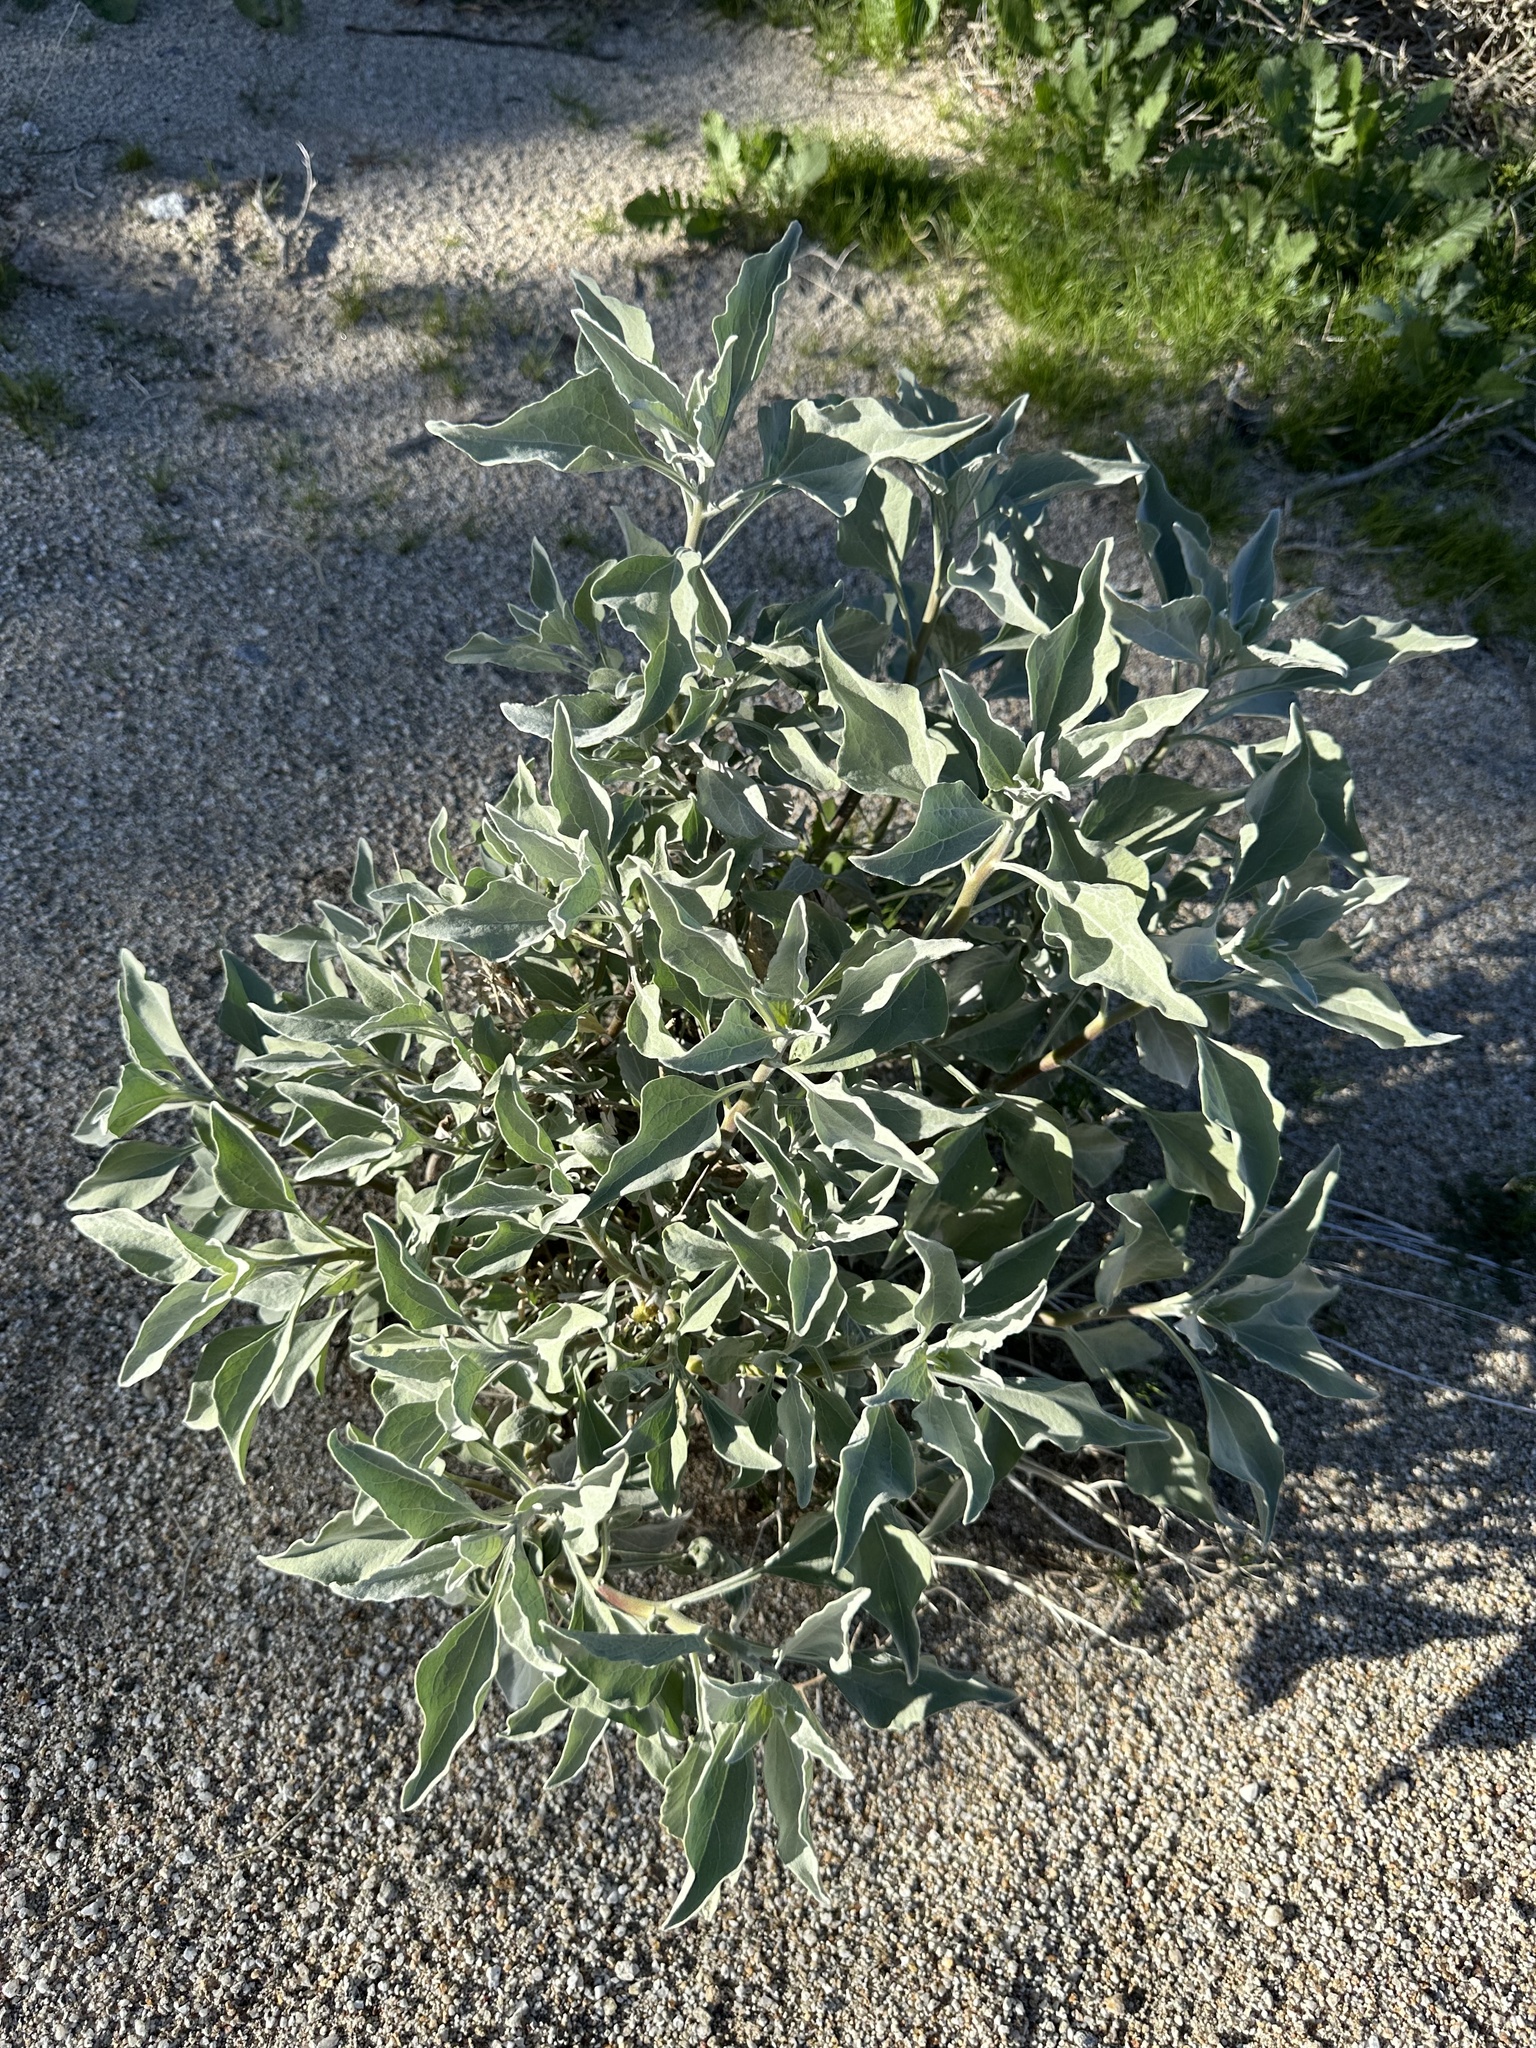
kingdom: Plantae
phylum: Tracheophyta
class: Magnoliopsida
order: Asterales
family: Asteraceae
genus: Encelia
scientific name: Encelia farinosa
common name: Brittlebush
